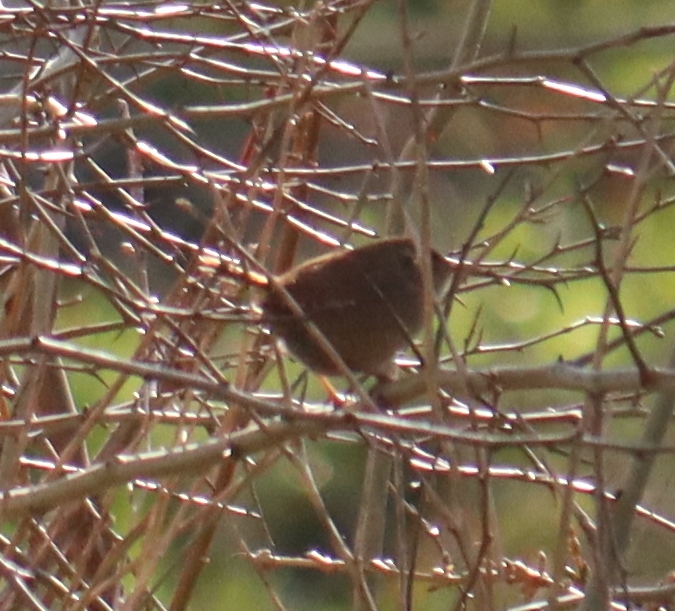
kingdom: Animalia
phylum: Chordata
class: Aves
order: Passeriformes
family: Troglodytidae
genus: Troglodytes
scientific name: Troglodytes troglodytes
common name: Eurasian wren
